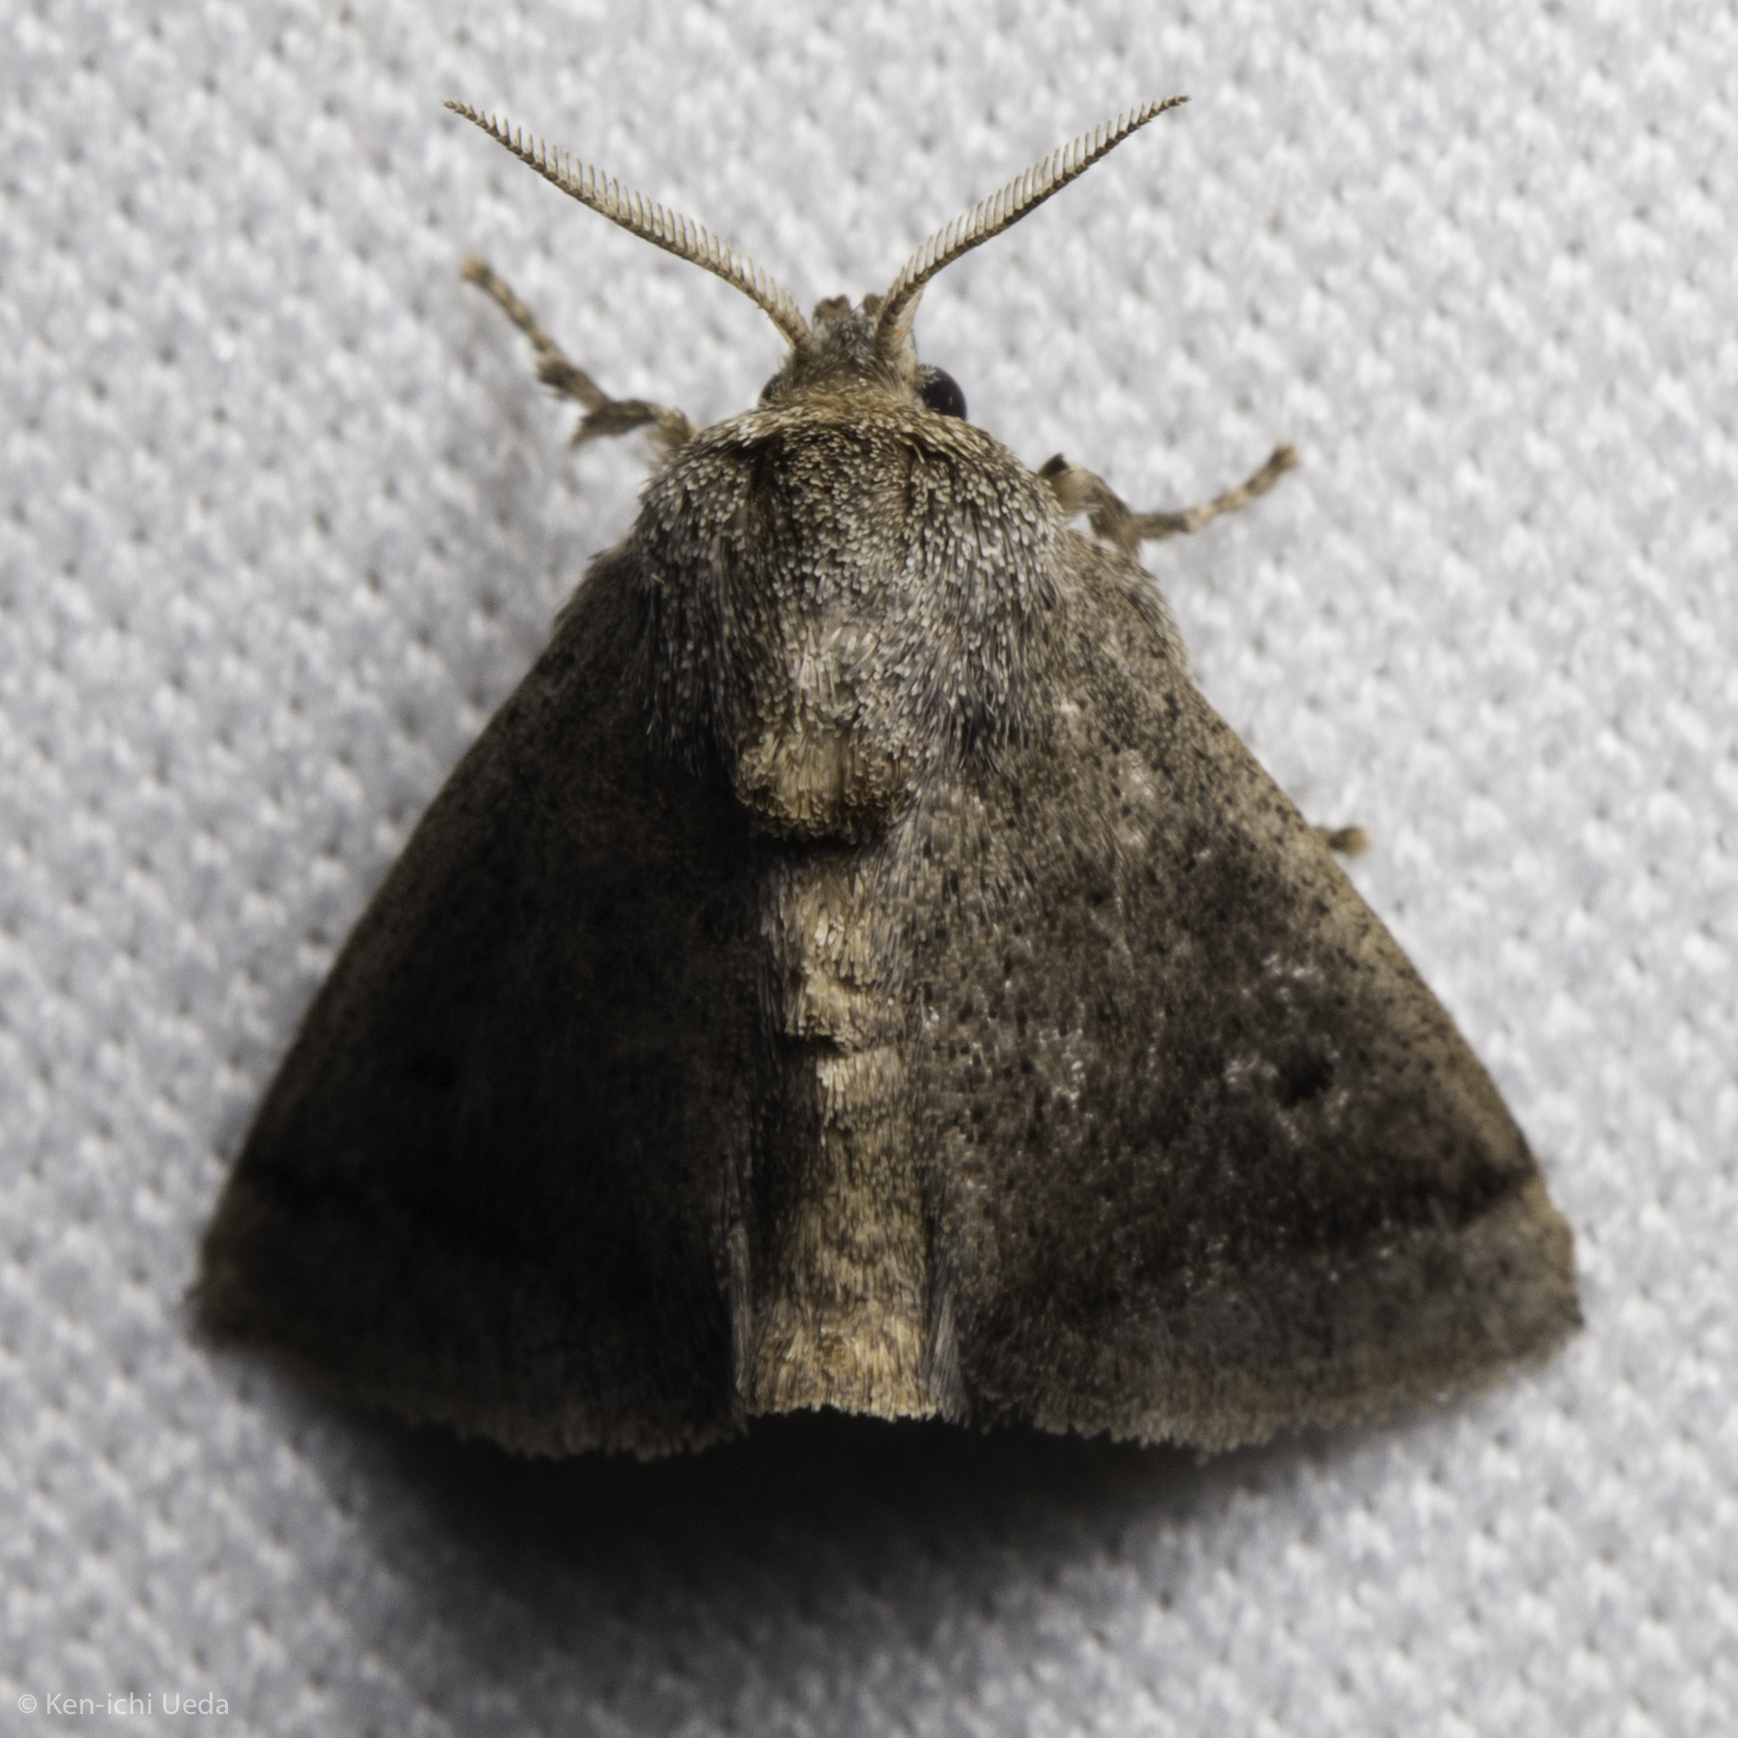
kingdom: Animalia
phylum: Arthropoda
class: Insecta
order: Lepidoptera
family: Limacodidae
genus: Natada
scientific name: Natada caria
